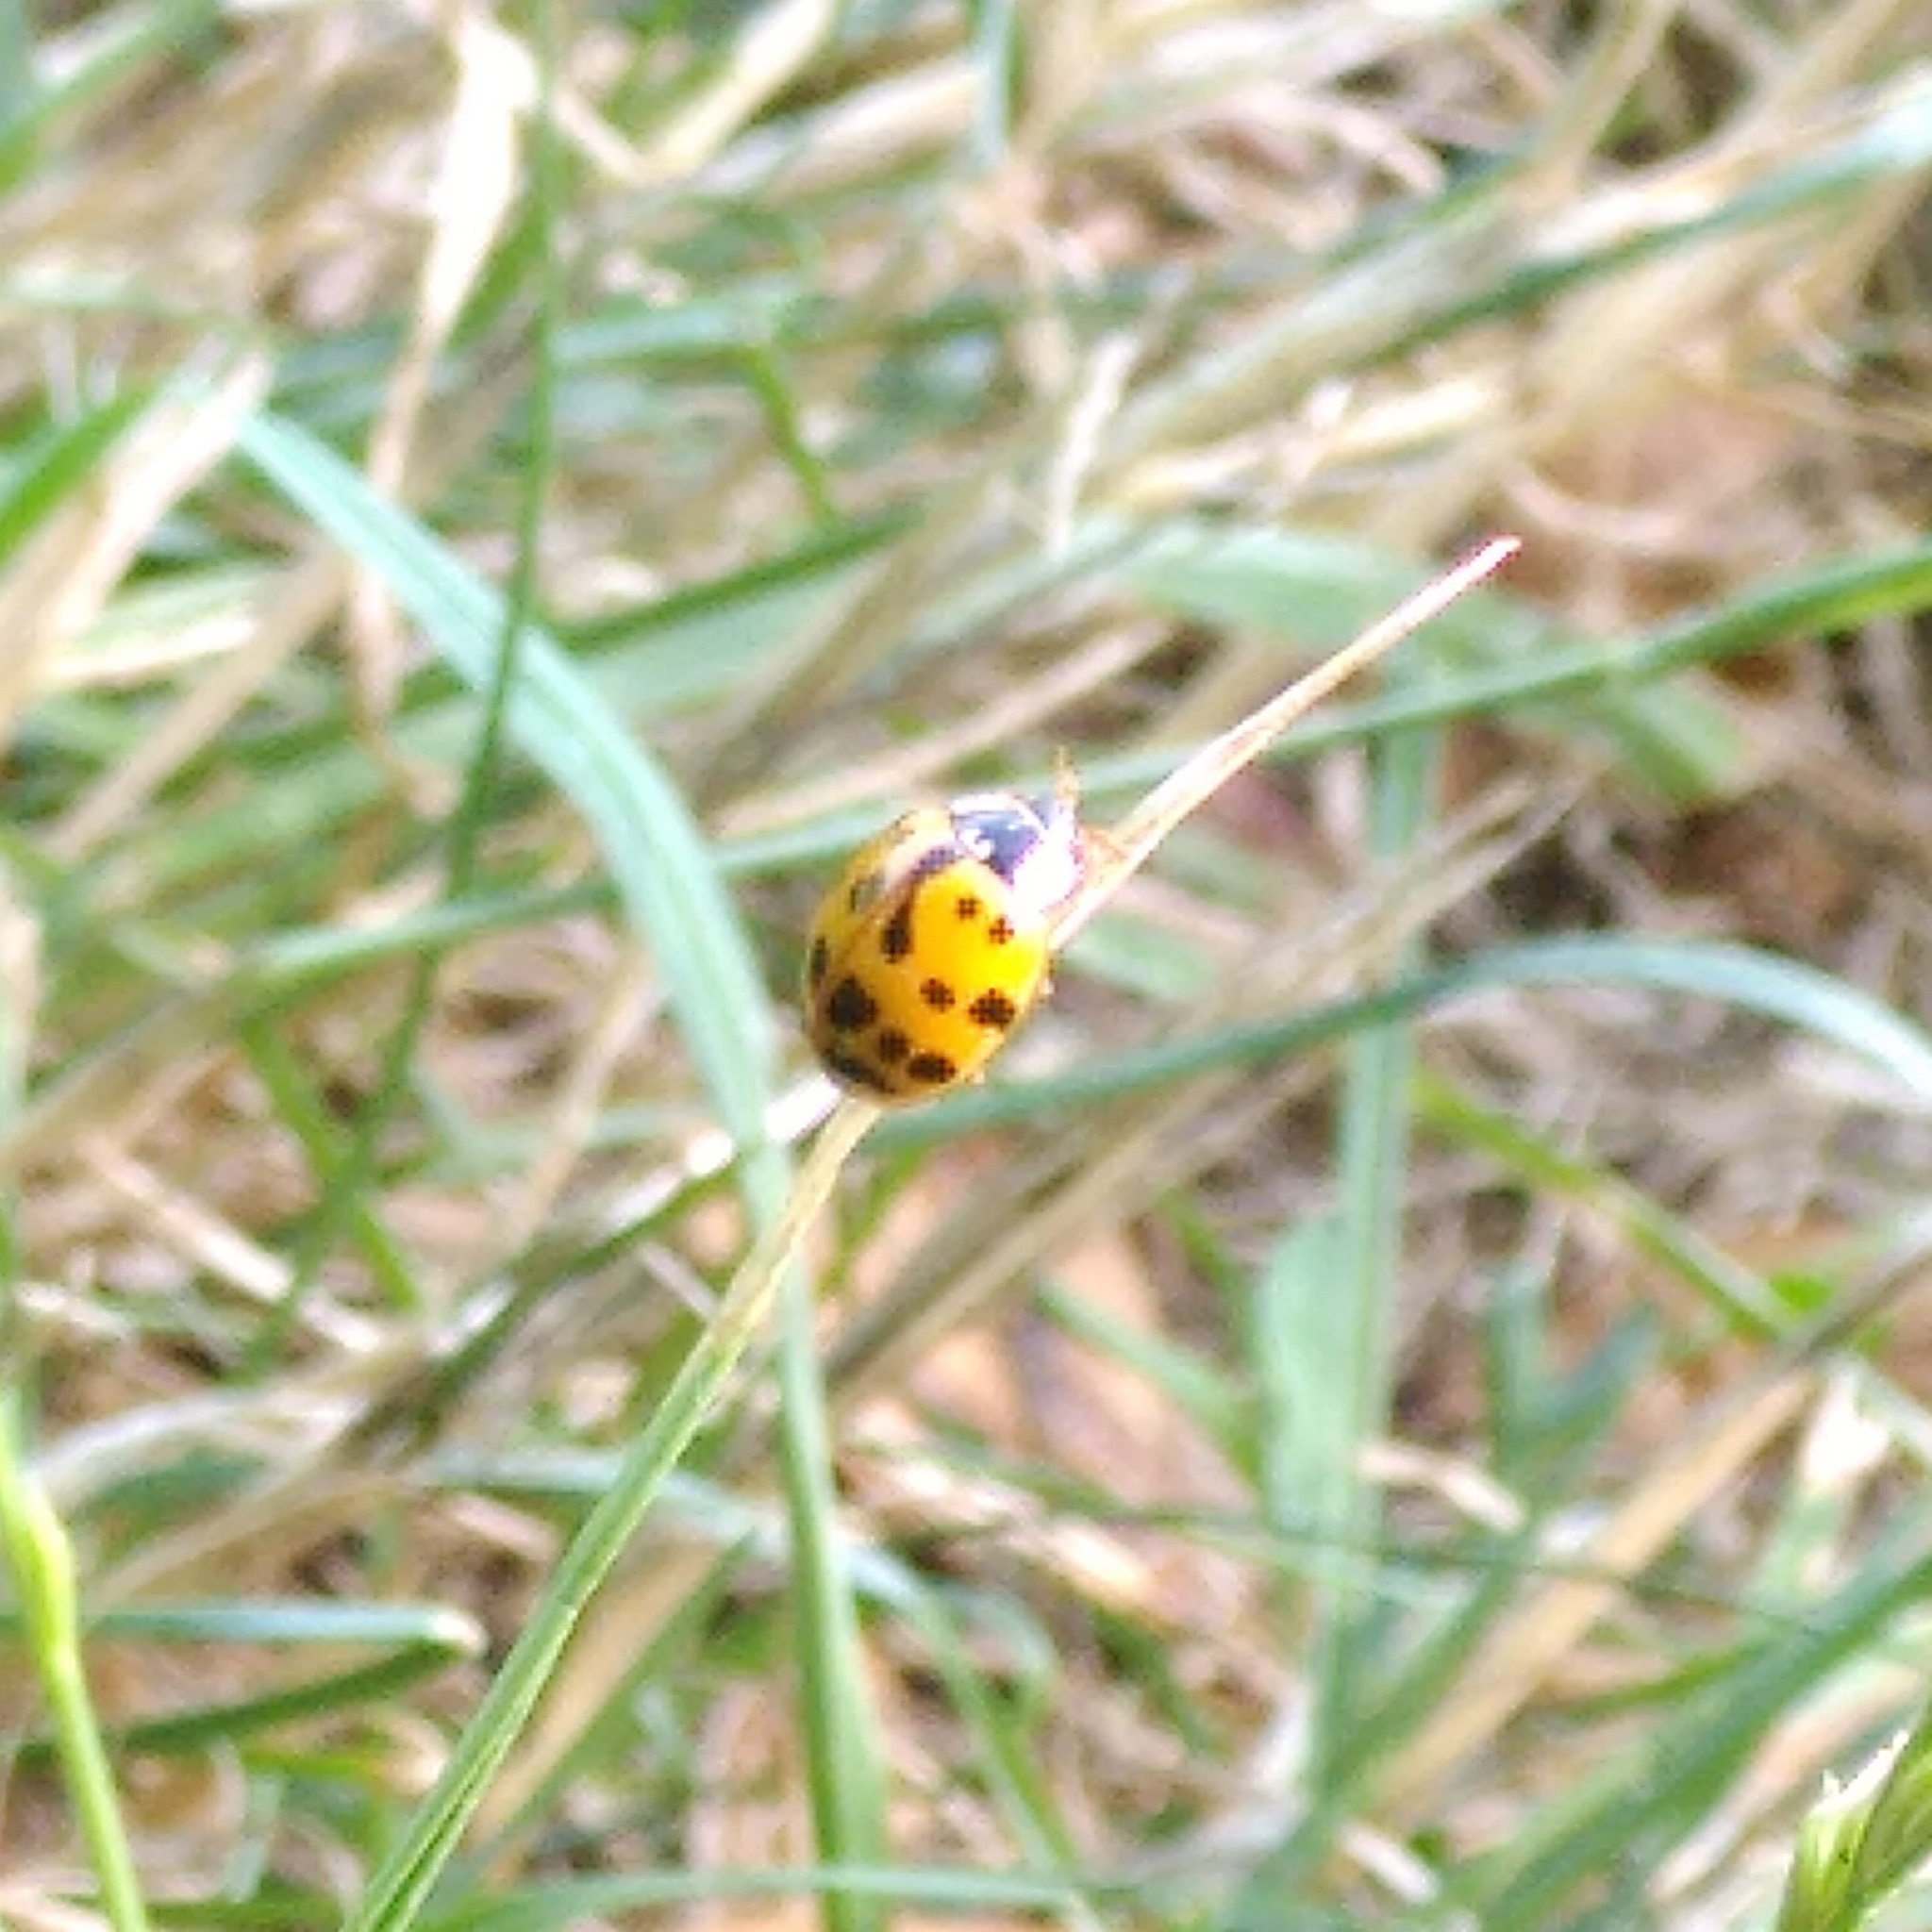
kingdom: Animalia
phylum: Arthropoda
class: Insecta
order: Coleoptera
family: Coccinellidae
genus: Harmonia
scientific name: Harmonia axyridis
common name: Harlequin ladybird
